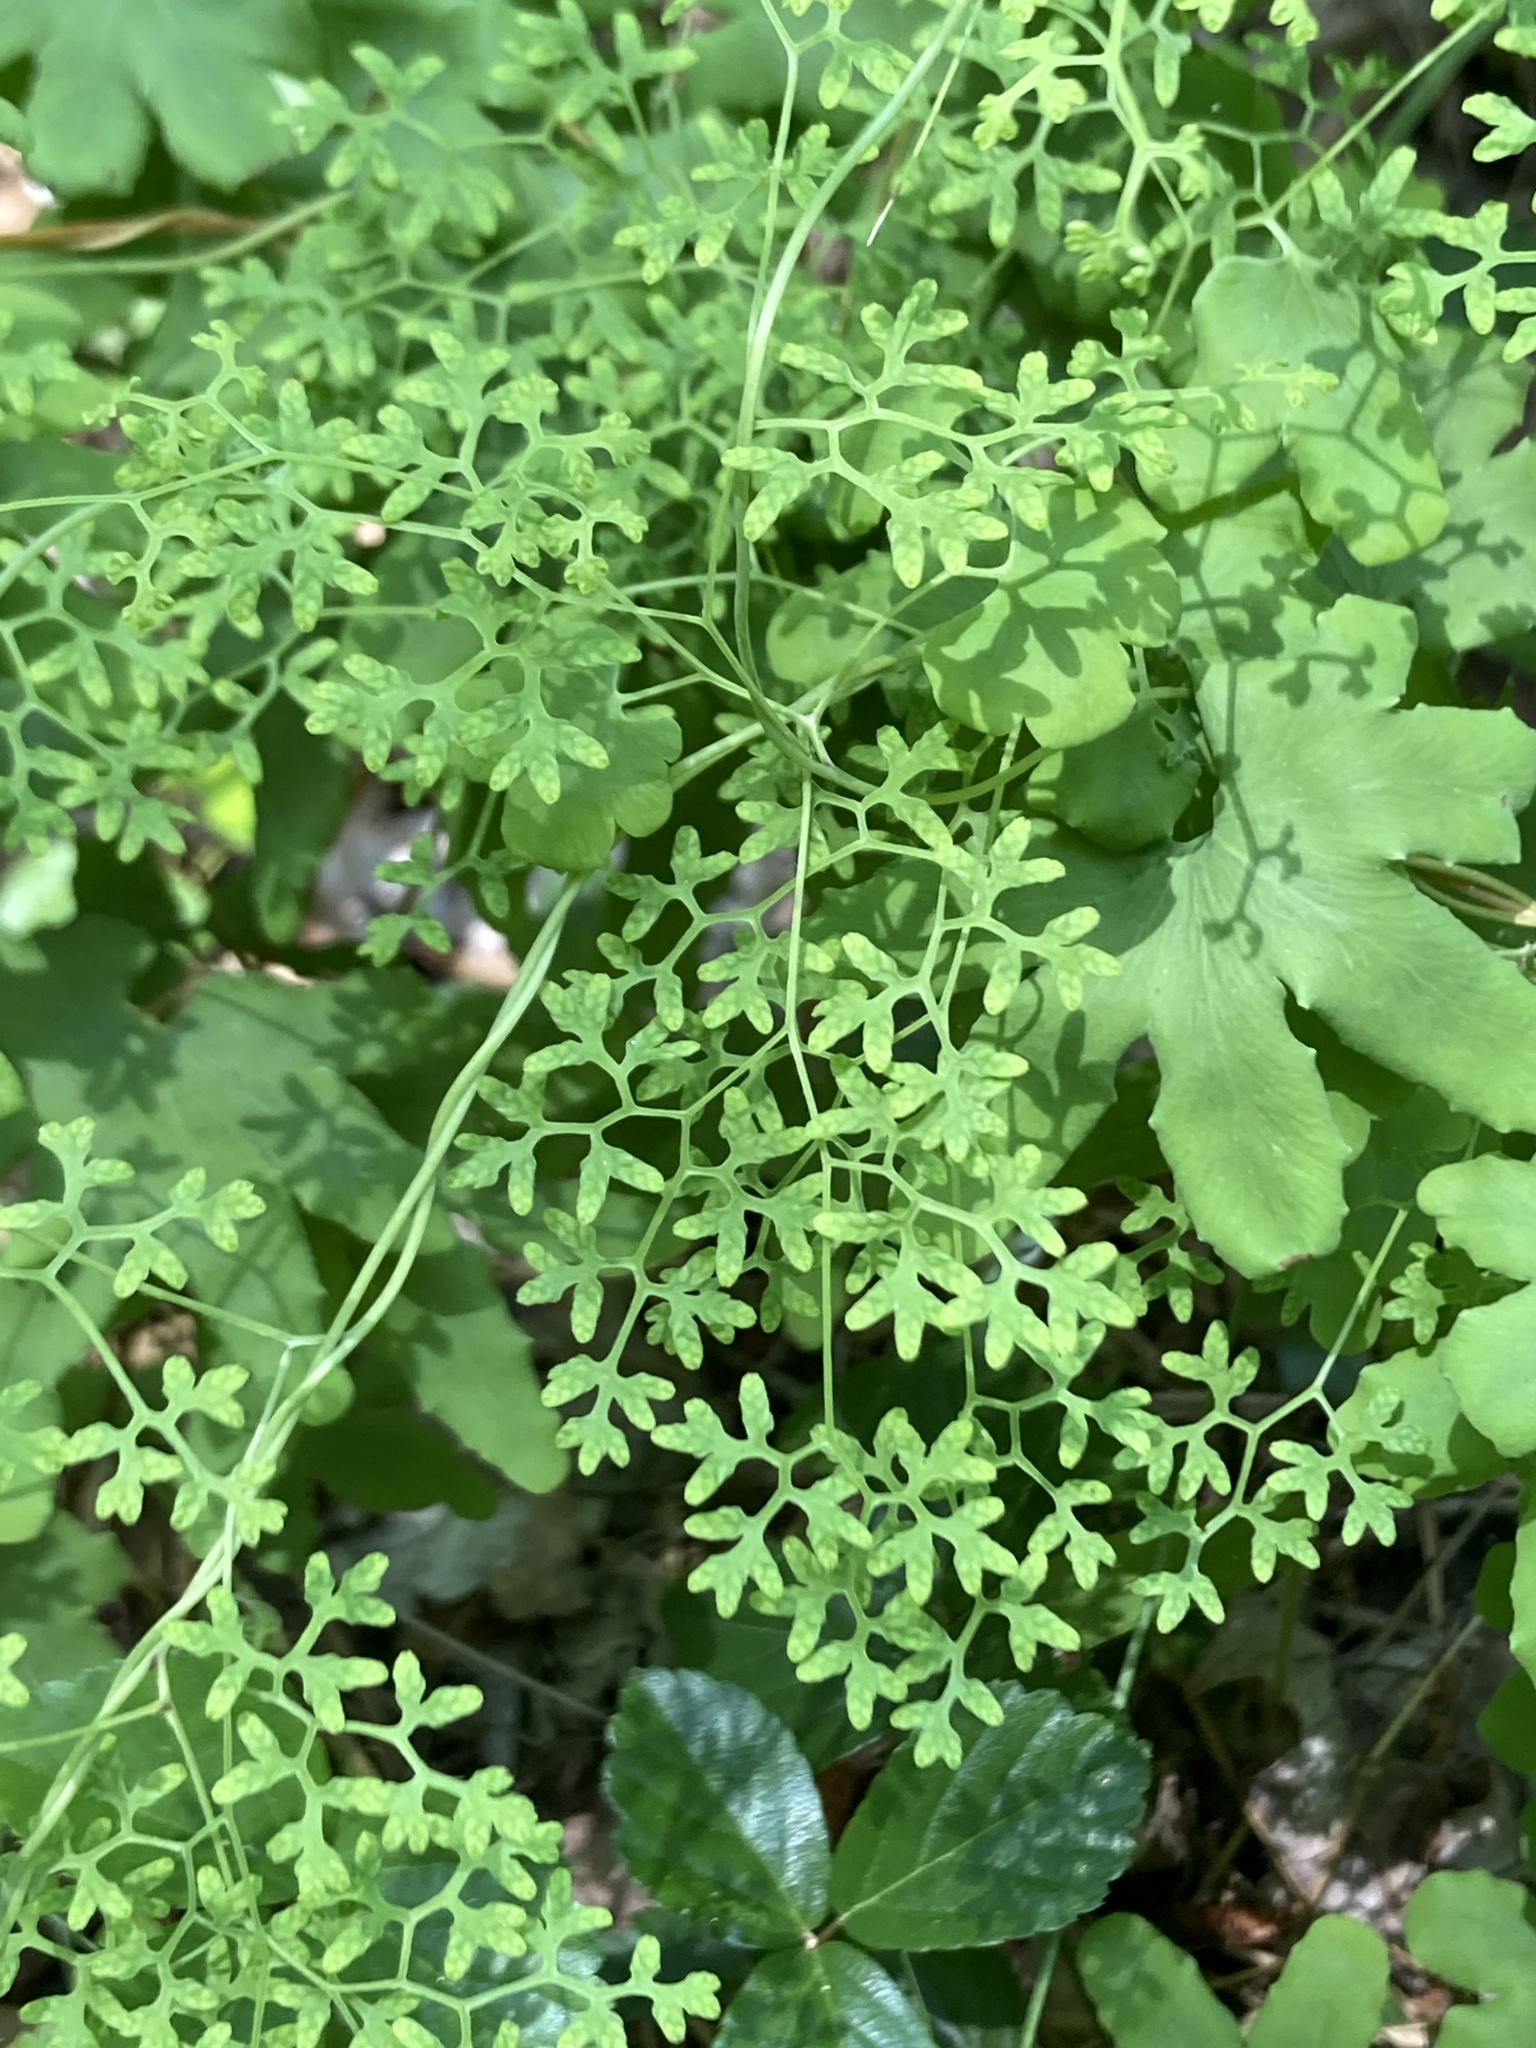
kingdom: Plantae
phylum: Tracheophyta
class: Polypodiopsida
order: Schizaeales
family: Lygodiaceae
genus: Lygodium
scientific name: Lygodium palmatum
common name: American climbing fern
